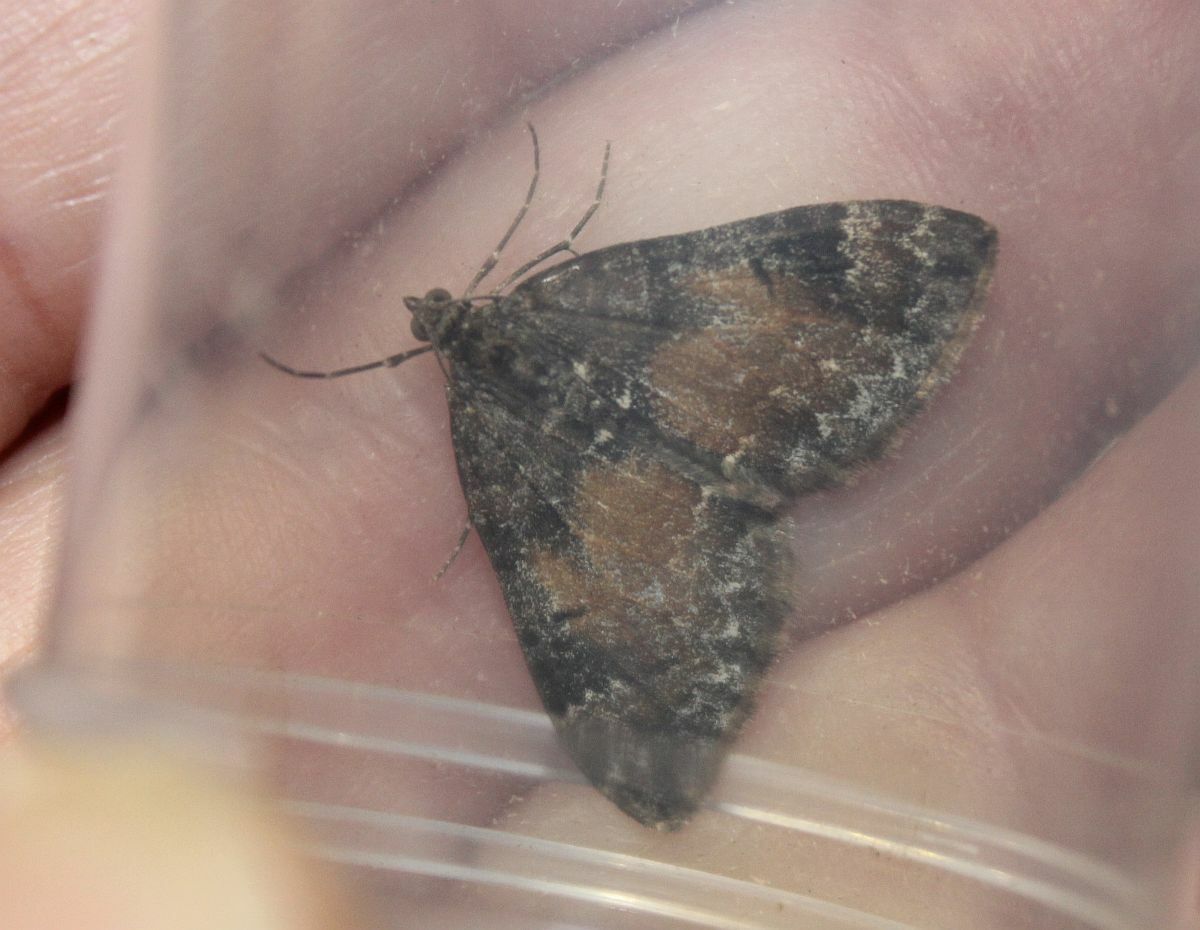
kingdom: Animalia
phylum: Arthropoda
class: Insecta
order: Lepidoptera
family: Geometridae
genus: Dysstroma
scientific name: Dysstroma truncata
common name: Common marbled carpet
